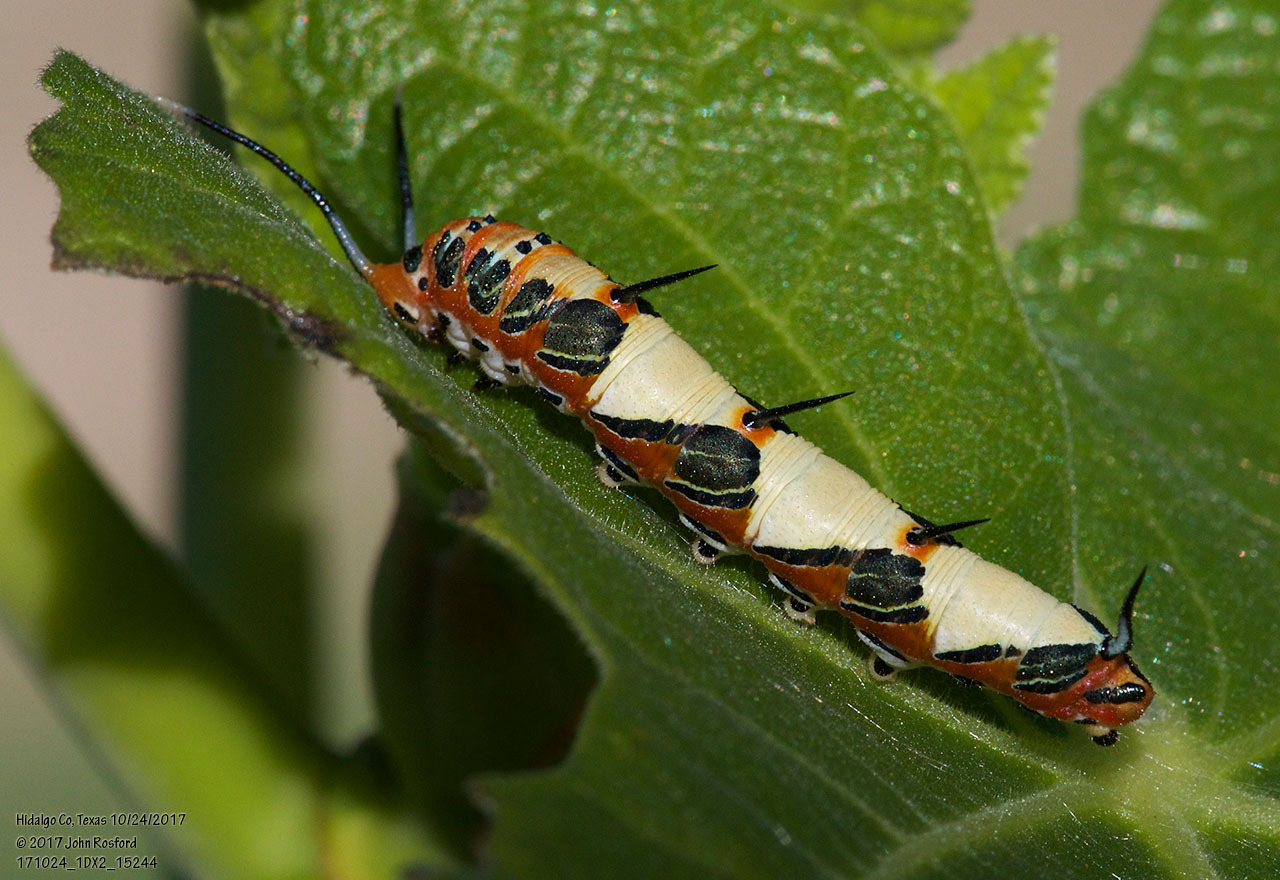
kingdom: Animalia
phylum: Arthropoda
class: Insecta
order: Lepidoptera
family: Nymphalidae
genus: Marpesia
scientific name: Marpesia petreus
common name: Red dagger wing
